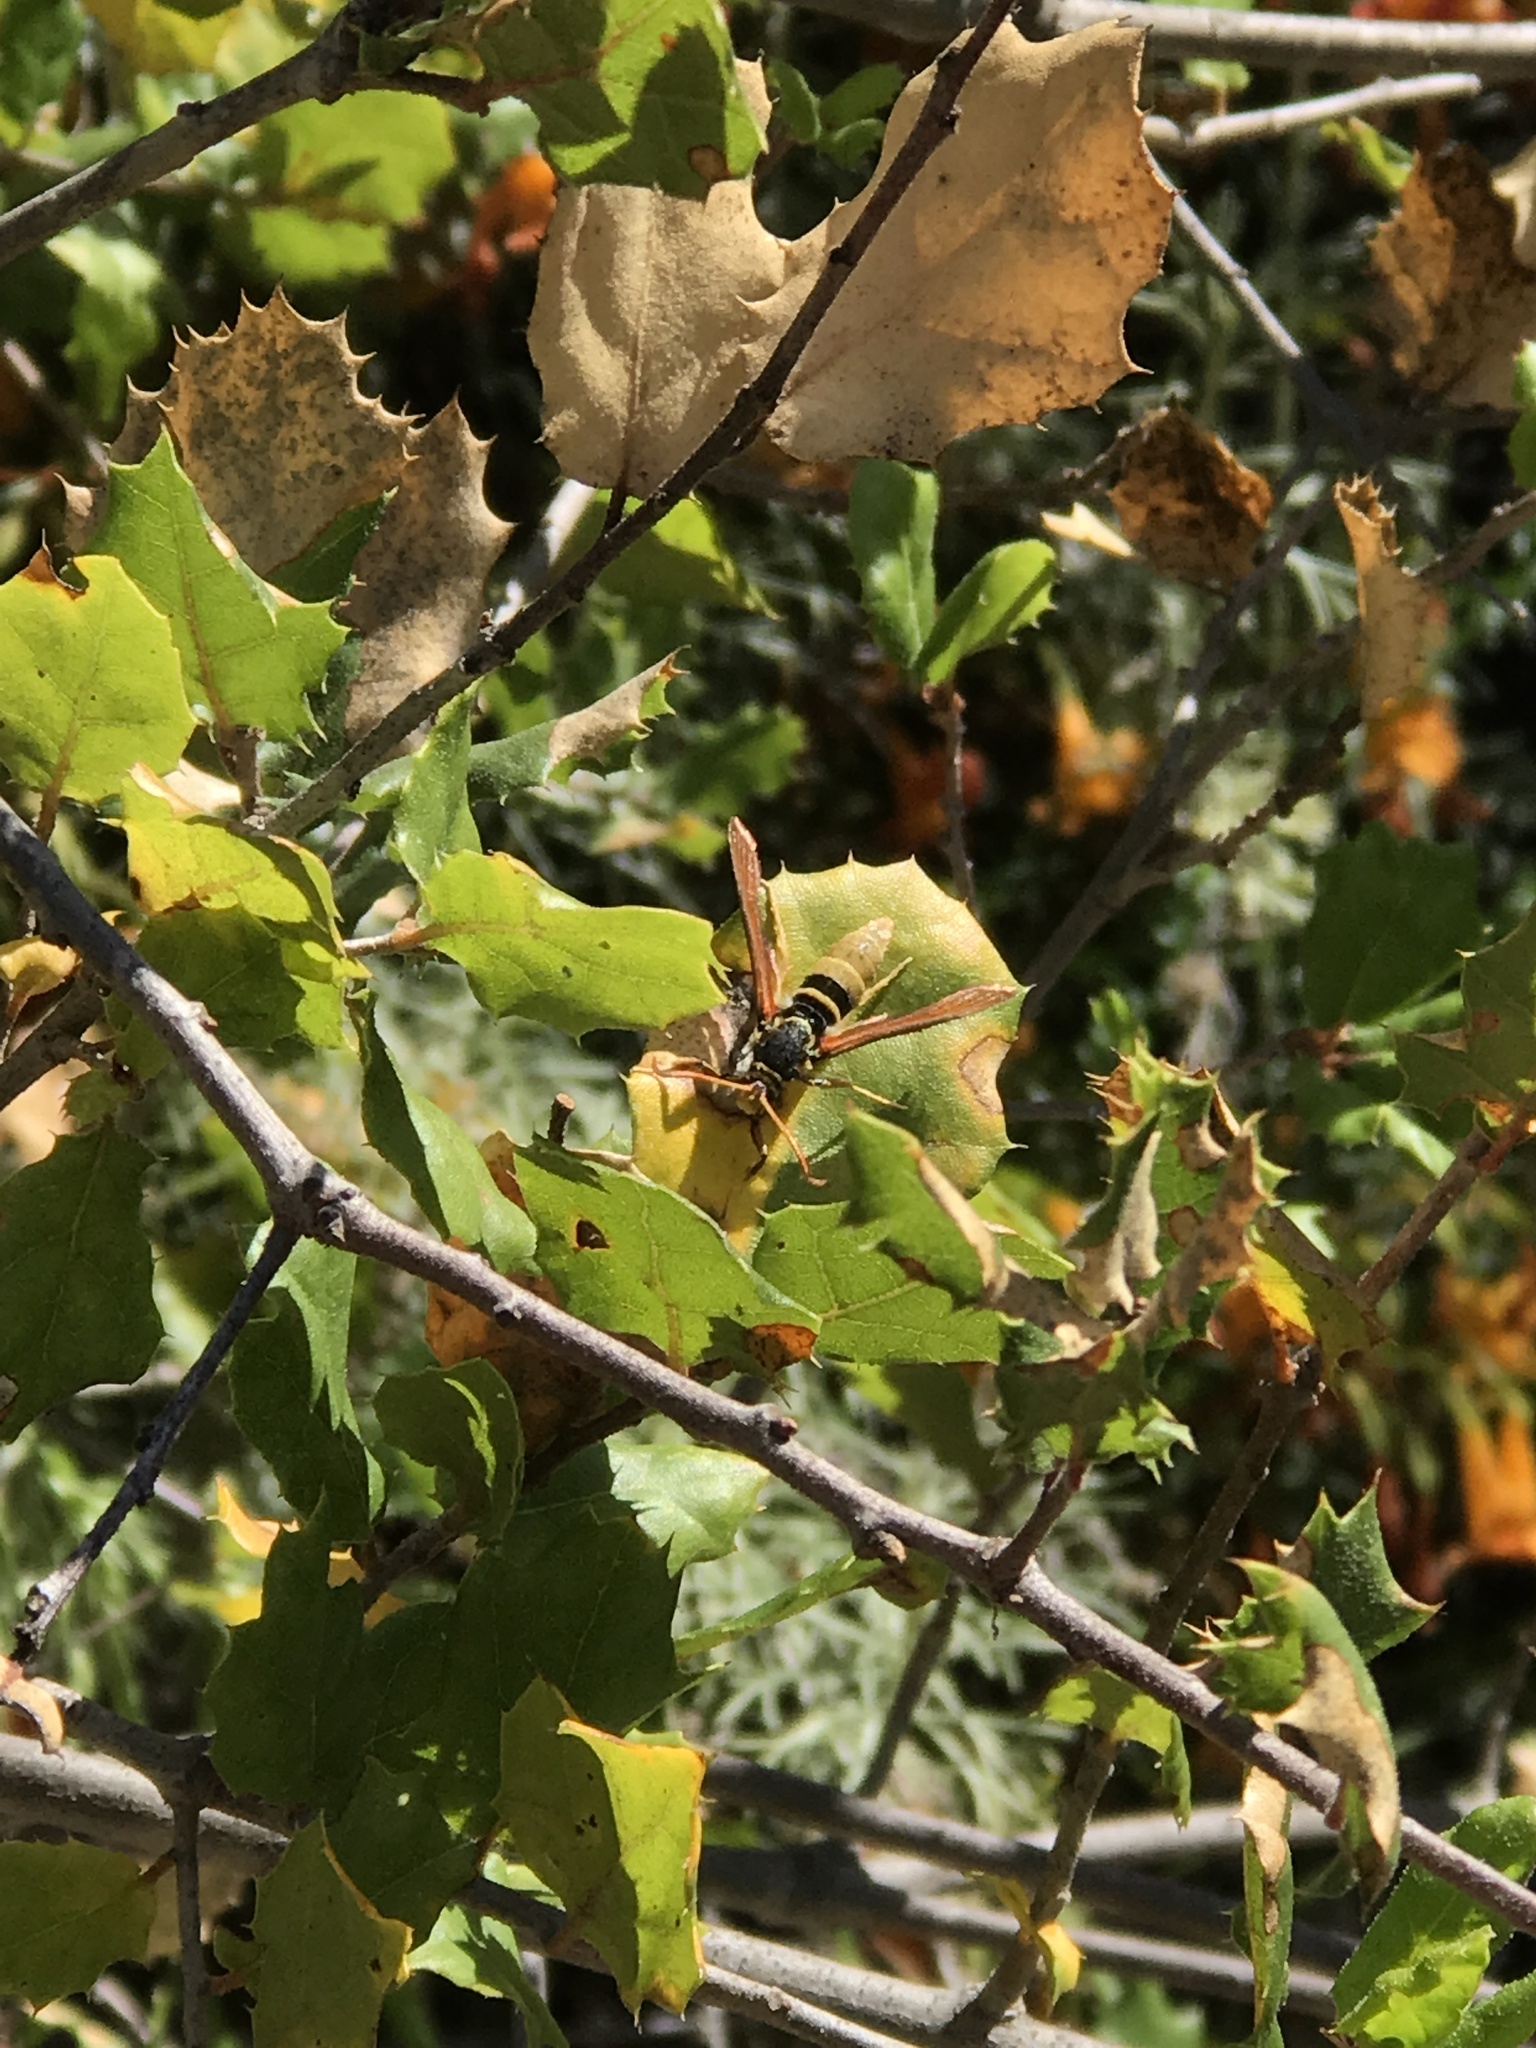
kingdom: Animalia
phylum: Arthropoda
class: Insecta
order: Lepidoptera
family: Sesiidae
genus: Paranthrene
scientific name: Paranthrene robiniae
